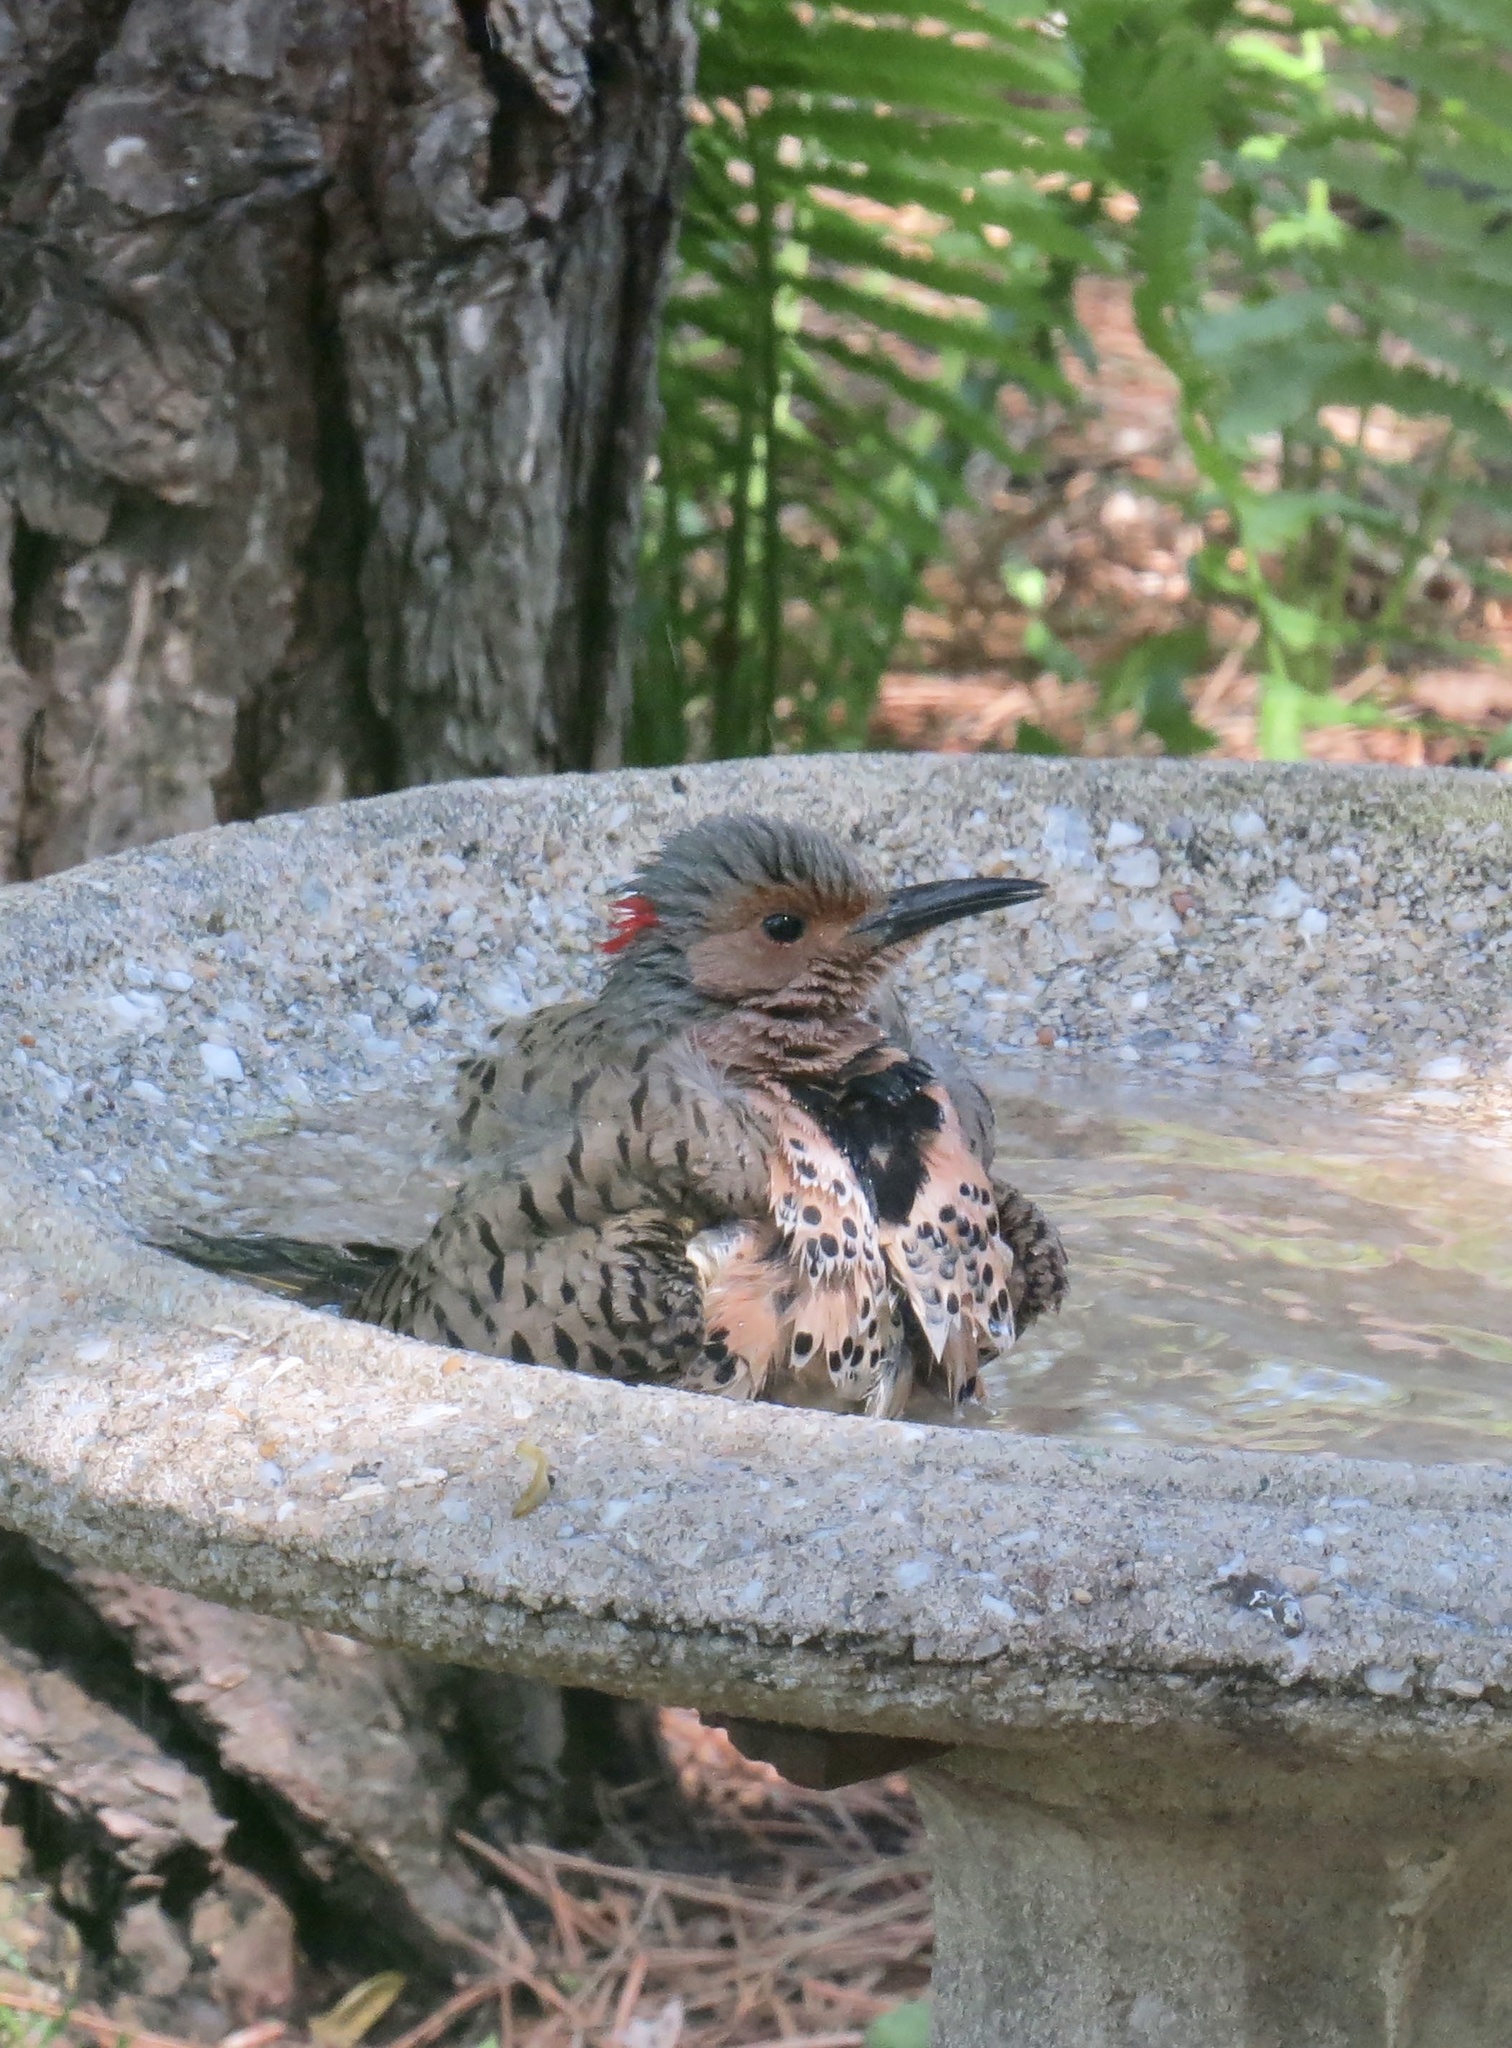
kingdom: Animalia
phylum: Chordata
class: Aves
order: Piciformes
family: Picidae
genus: Colaptes
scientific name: Colaptes auratus
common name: Northern flicker
